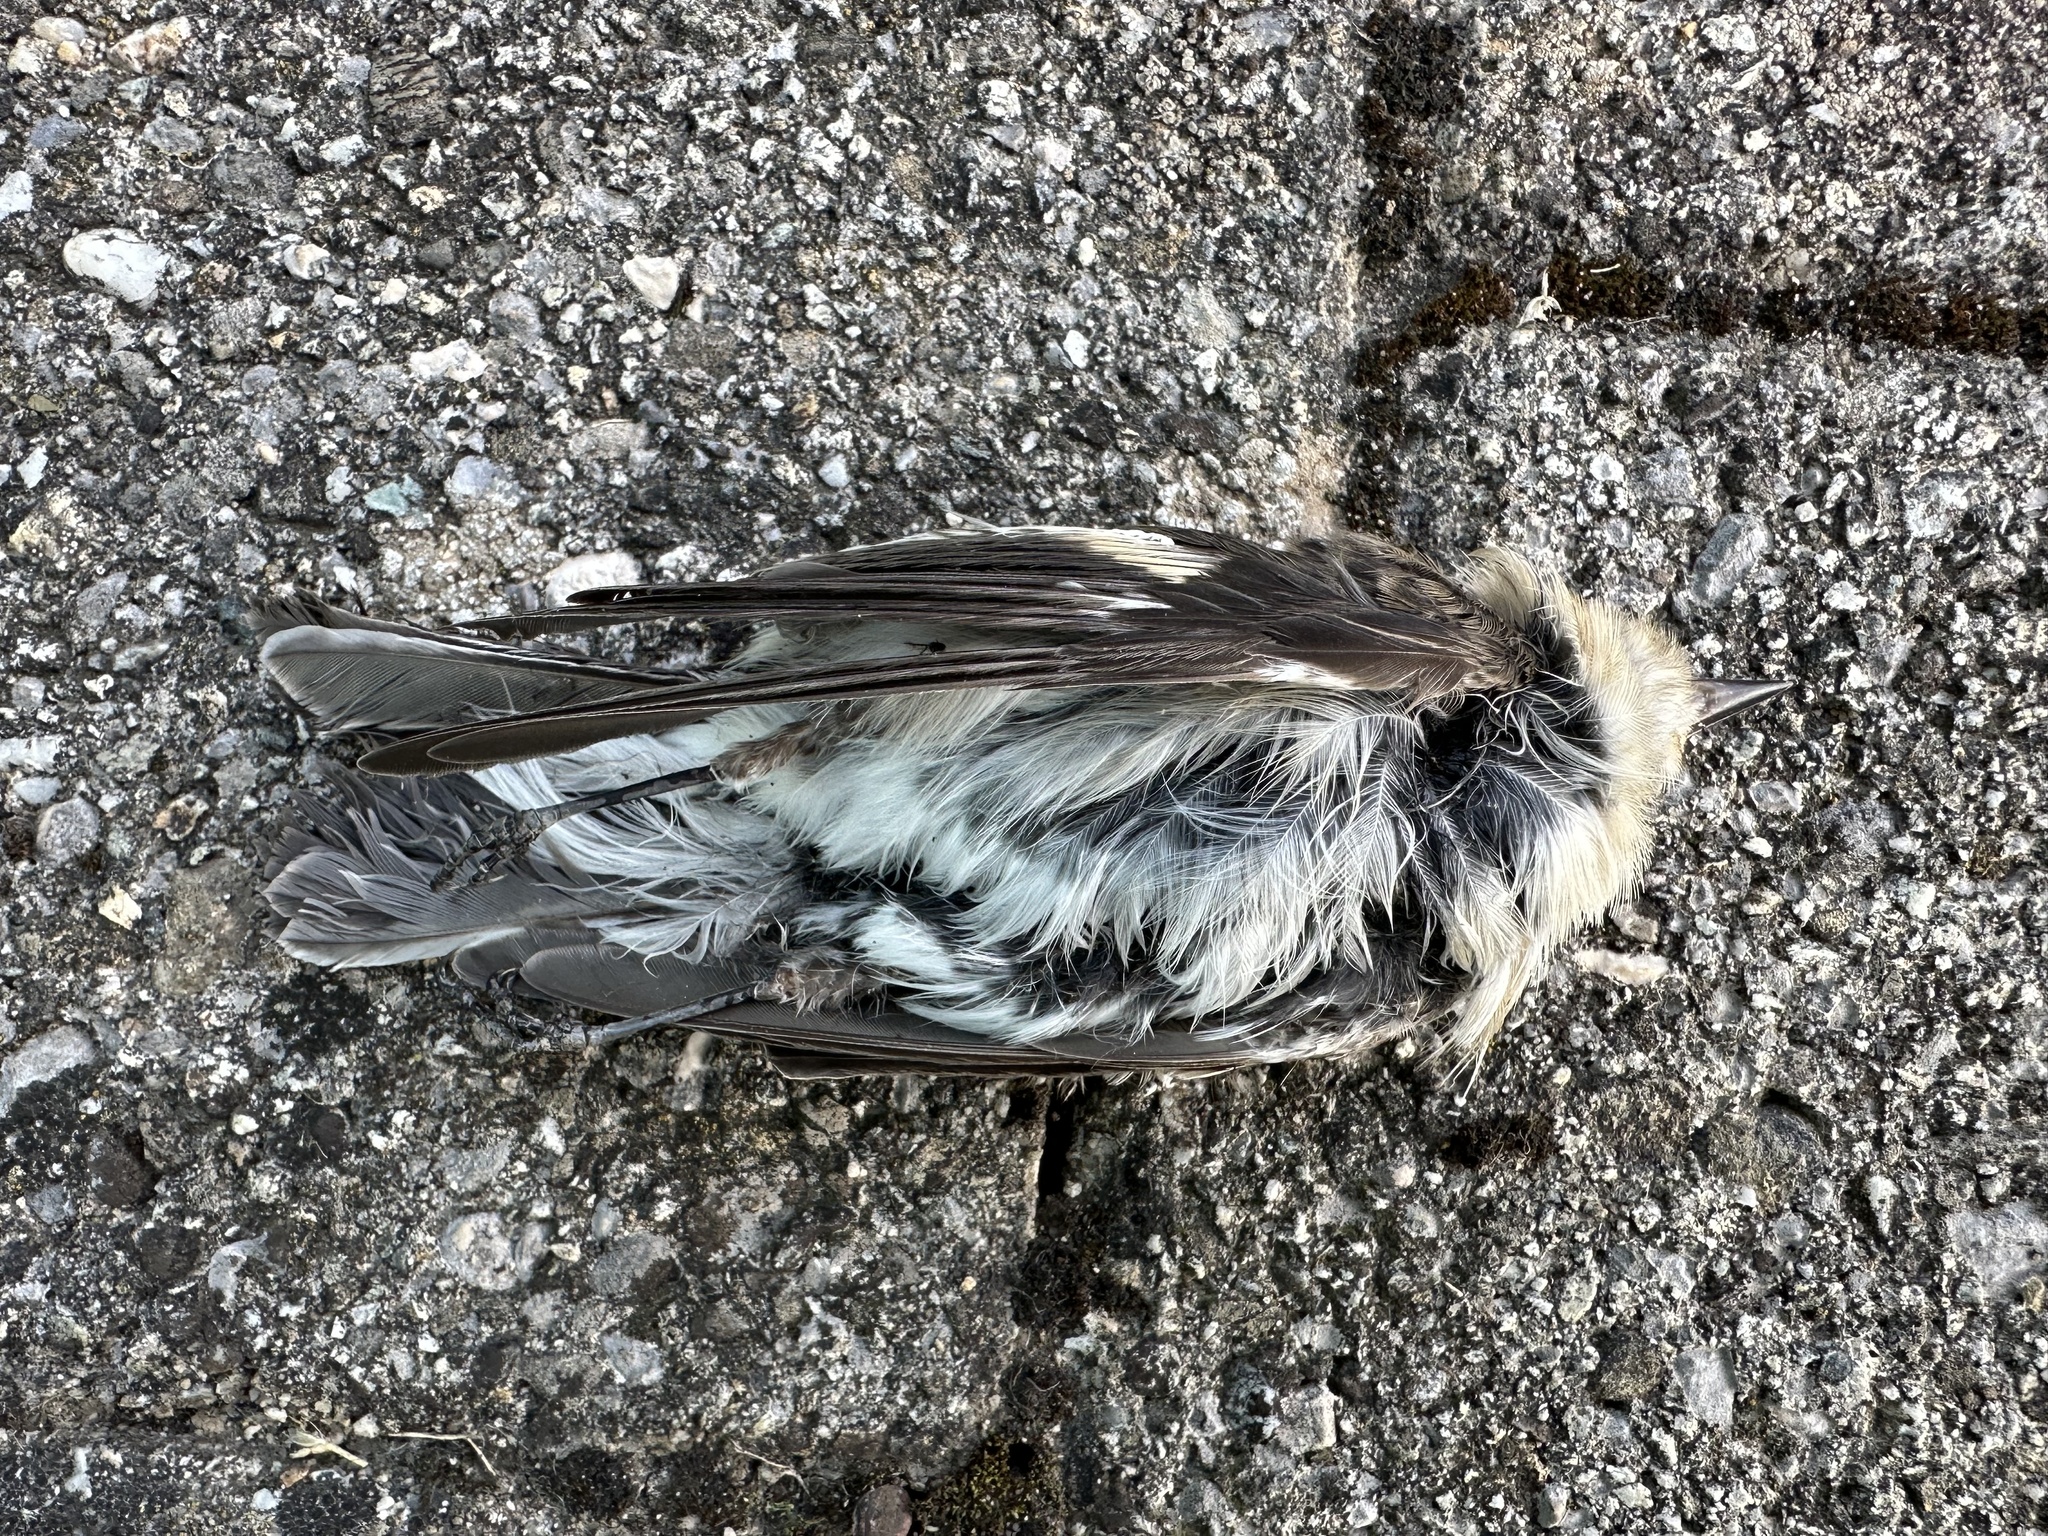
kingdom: Animalia
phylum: Chordata
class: Aves
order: Passeriformes
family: Muscicapidae
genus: Ficedula
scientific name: Ficedula hypoleuca
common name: European pied flycatcher
